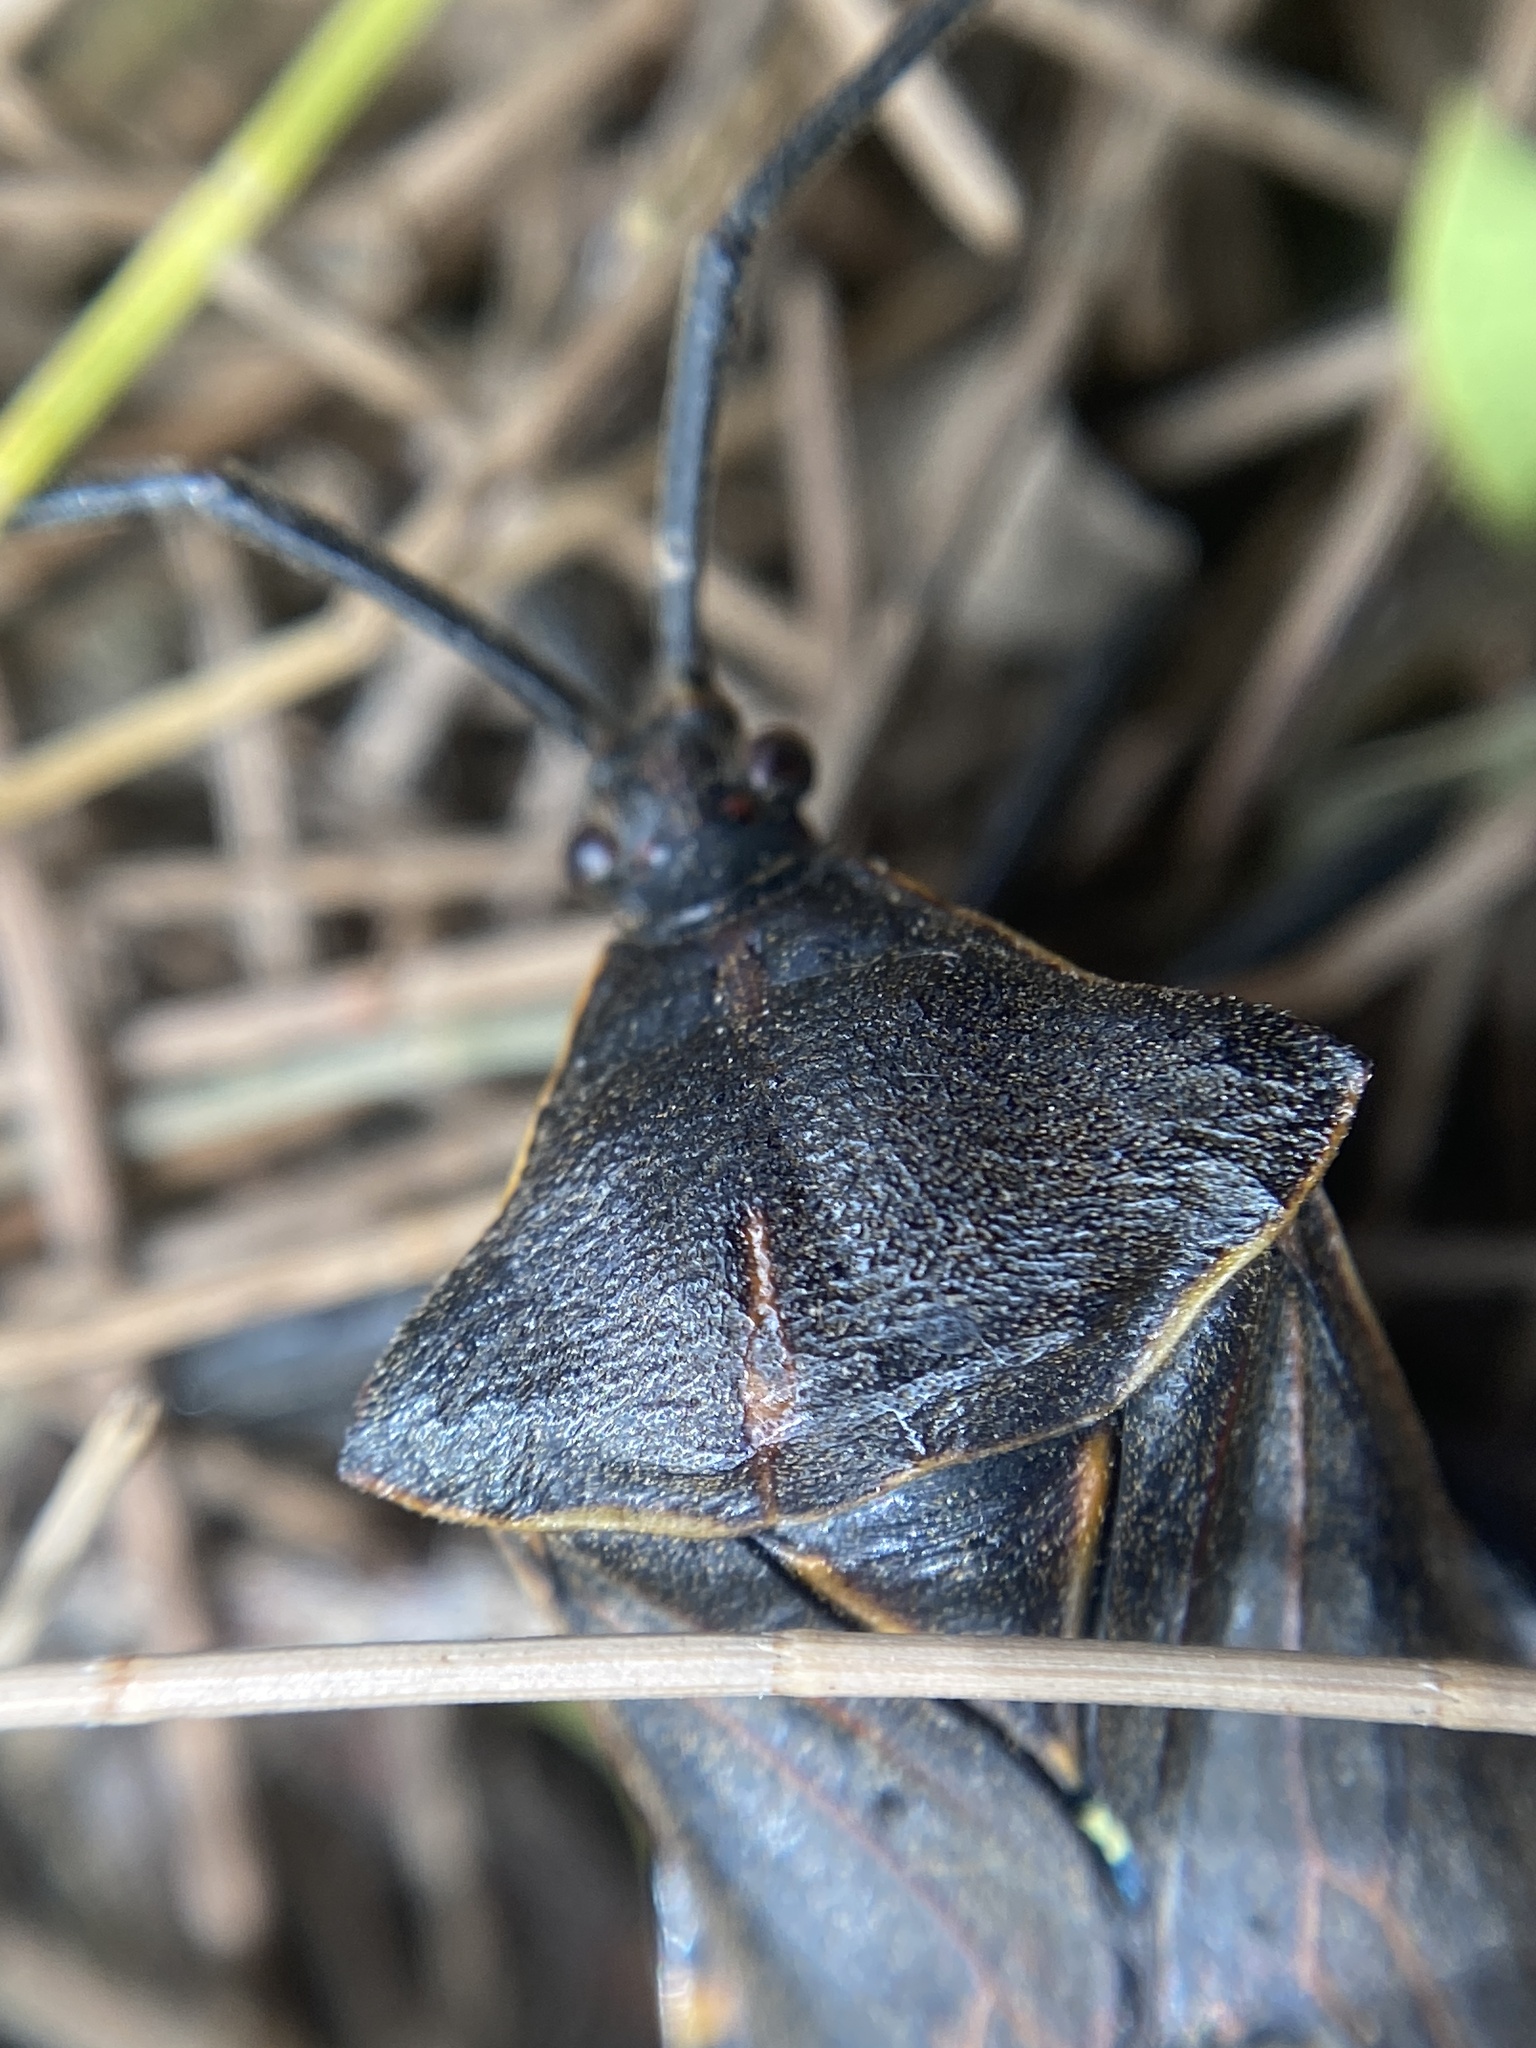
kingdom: Animalia
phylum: Arthropoda
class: Insecta
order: Hemiptera
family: Coreidae
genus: Pachylis
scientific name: Pachylis argentinus
